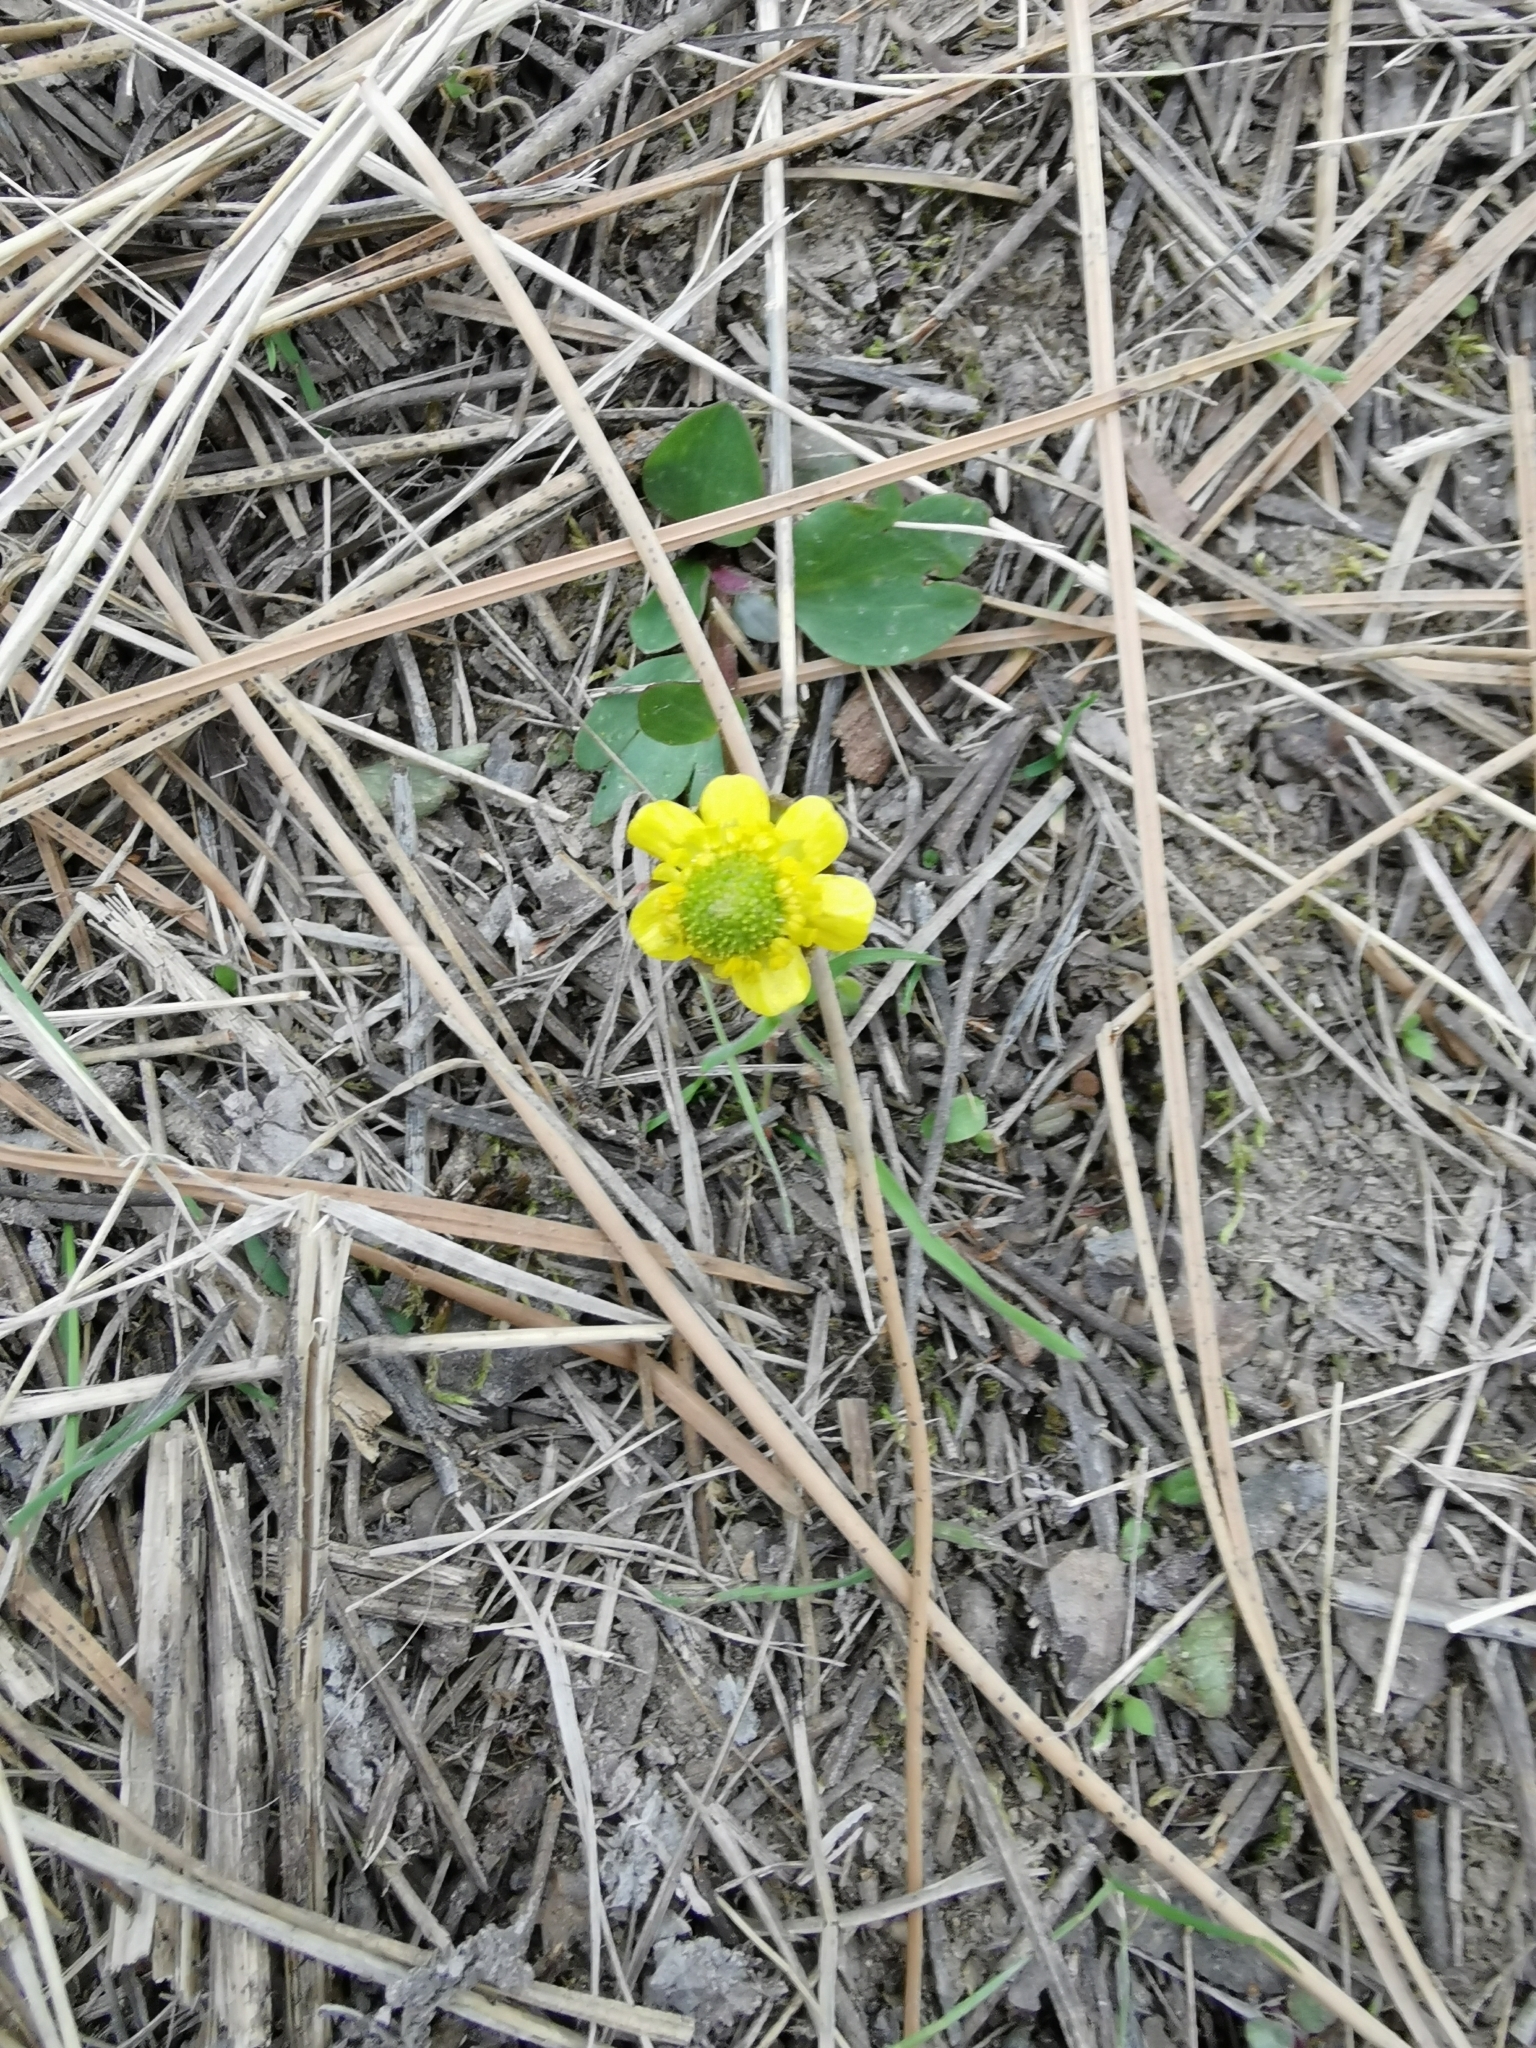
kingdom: Plantae
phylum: Tracheophyta
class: Magnoliopsida
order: Ranunculales
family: Ranunculaceae
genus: Ranunculus
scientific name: Ranunculus glaberrimus
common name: Sagebrush buttercup
